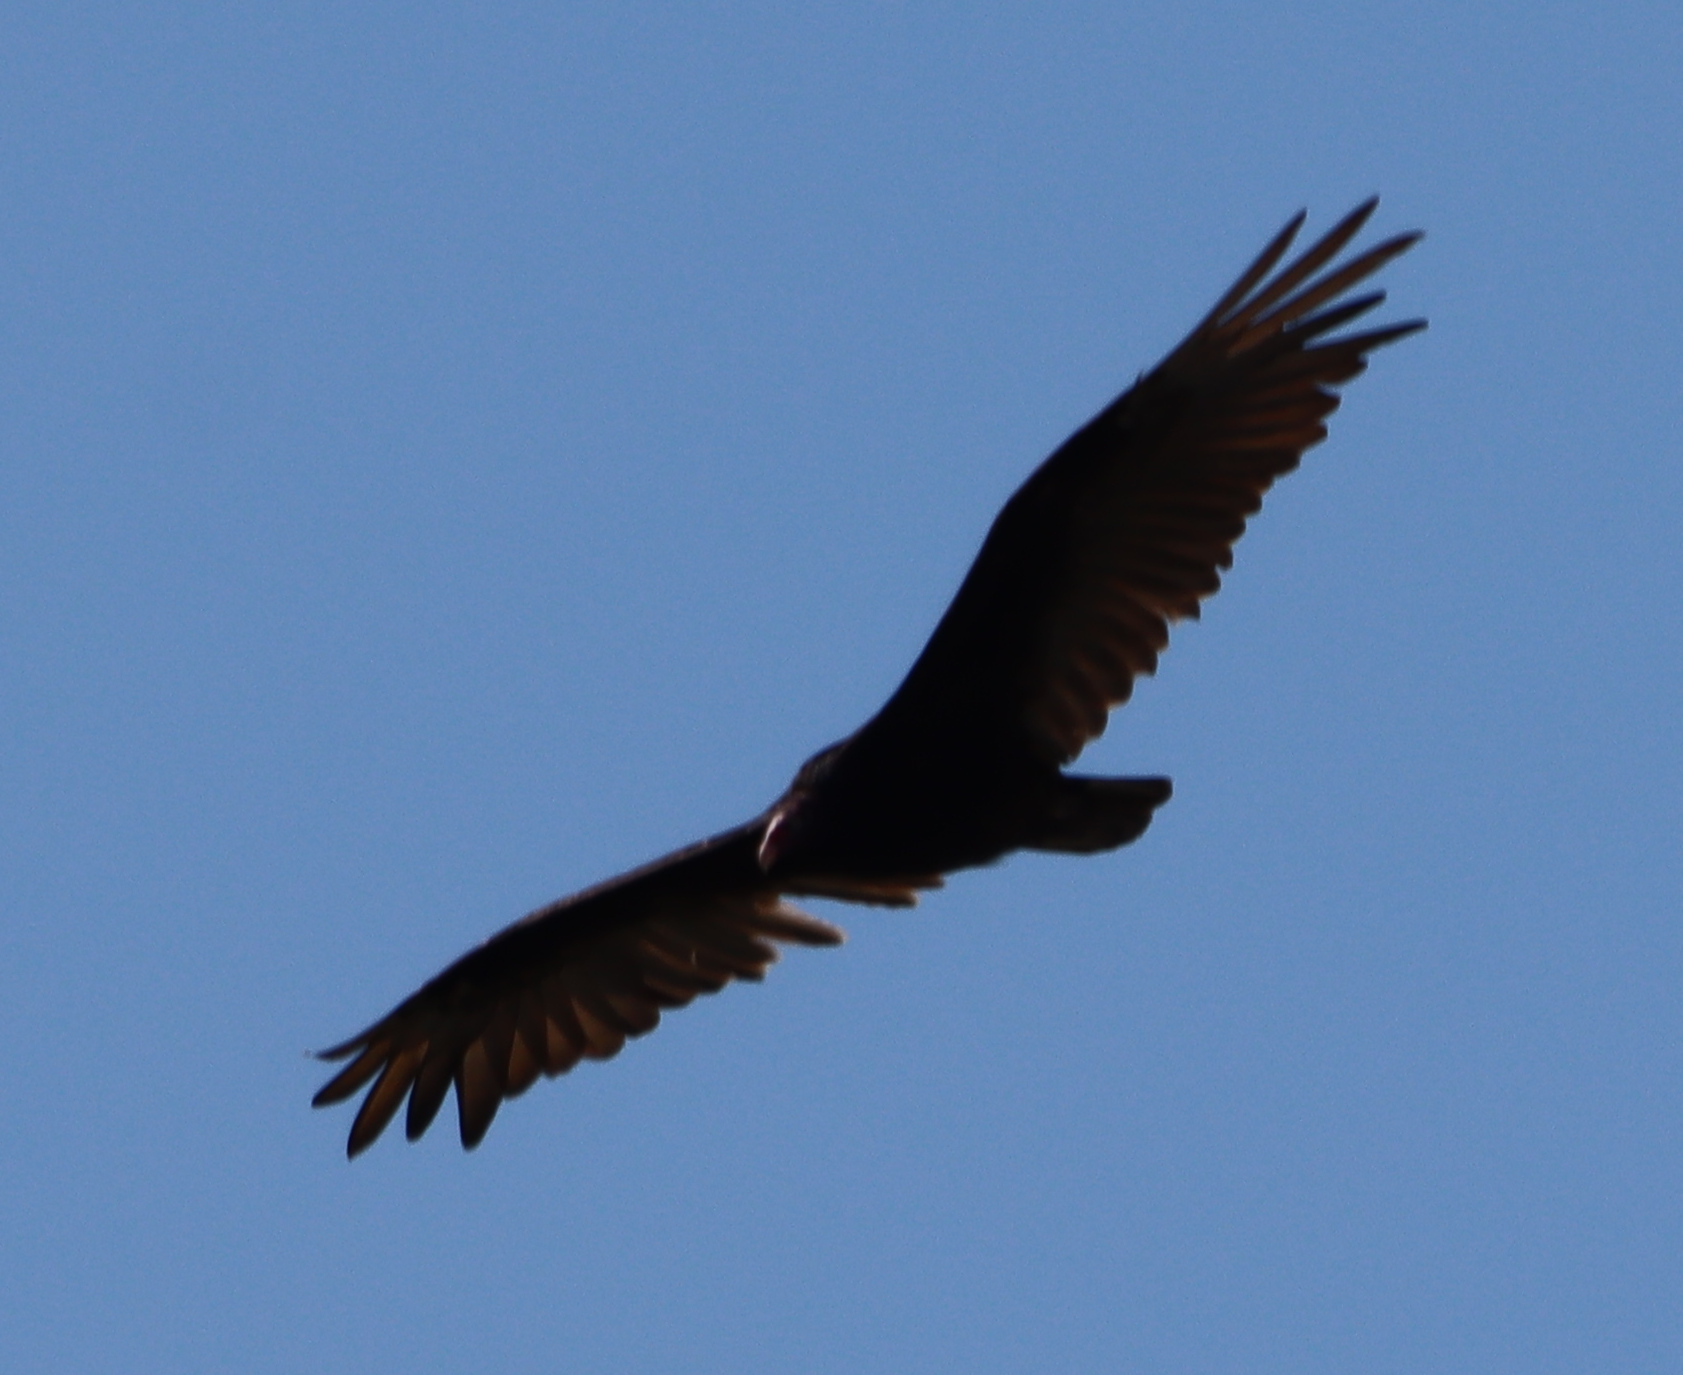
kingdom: Animalia
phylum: Chordata
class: Aves
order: Accipitriformes
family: Cathartidae
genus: Cathartes
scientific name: Cathartes aura
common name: Turkey vulture
